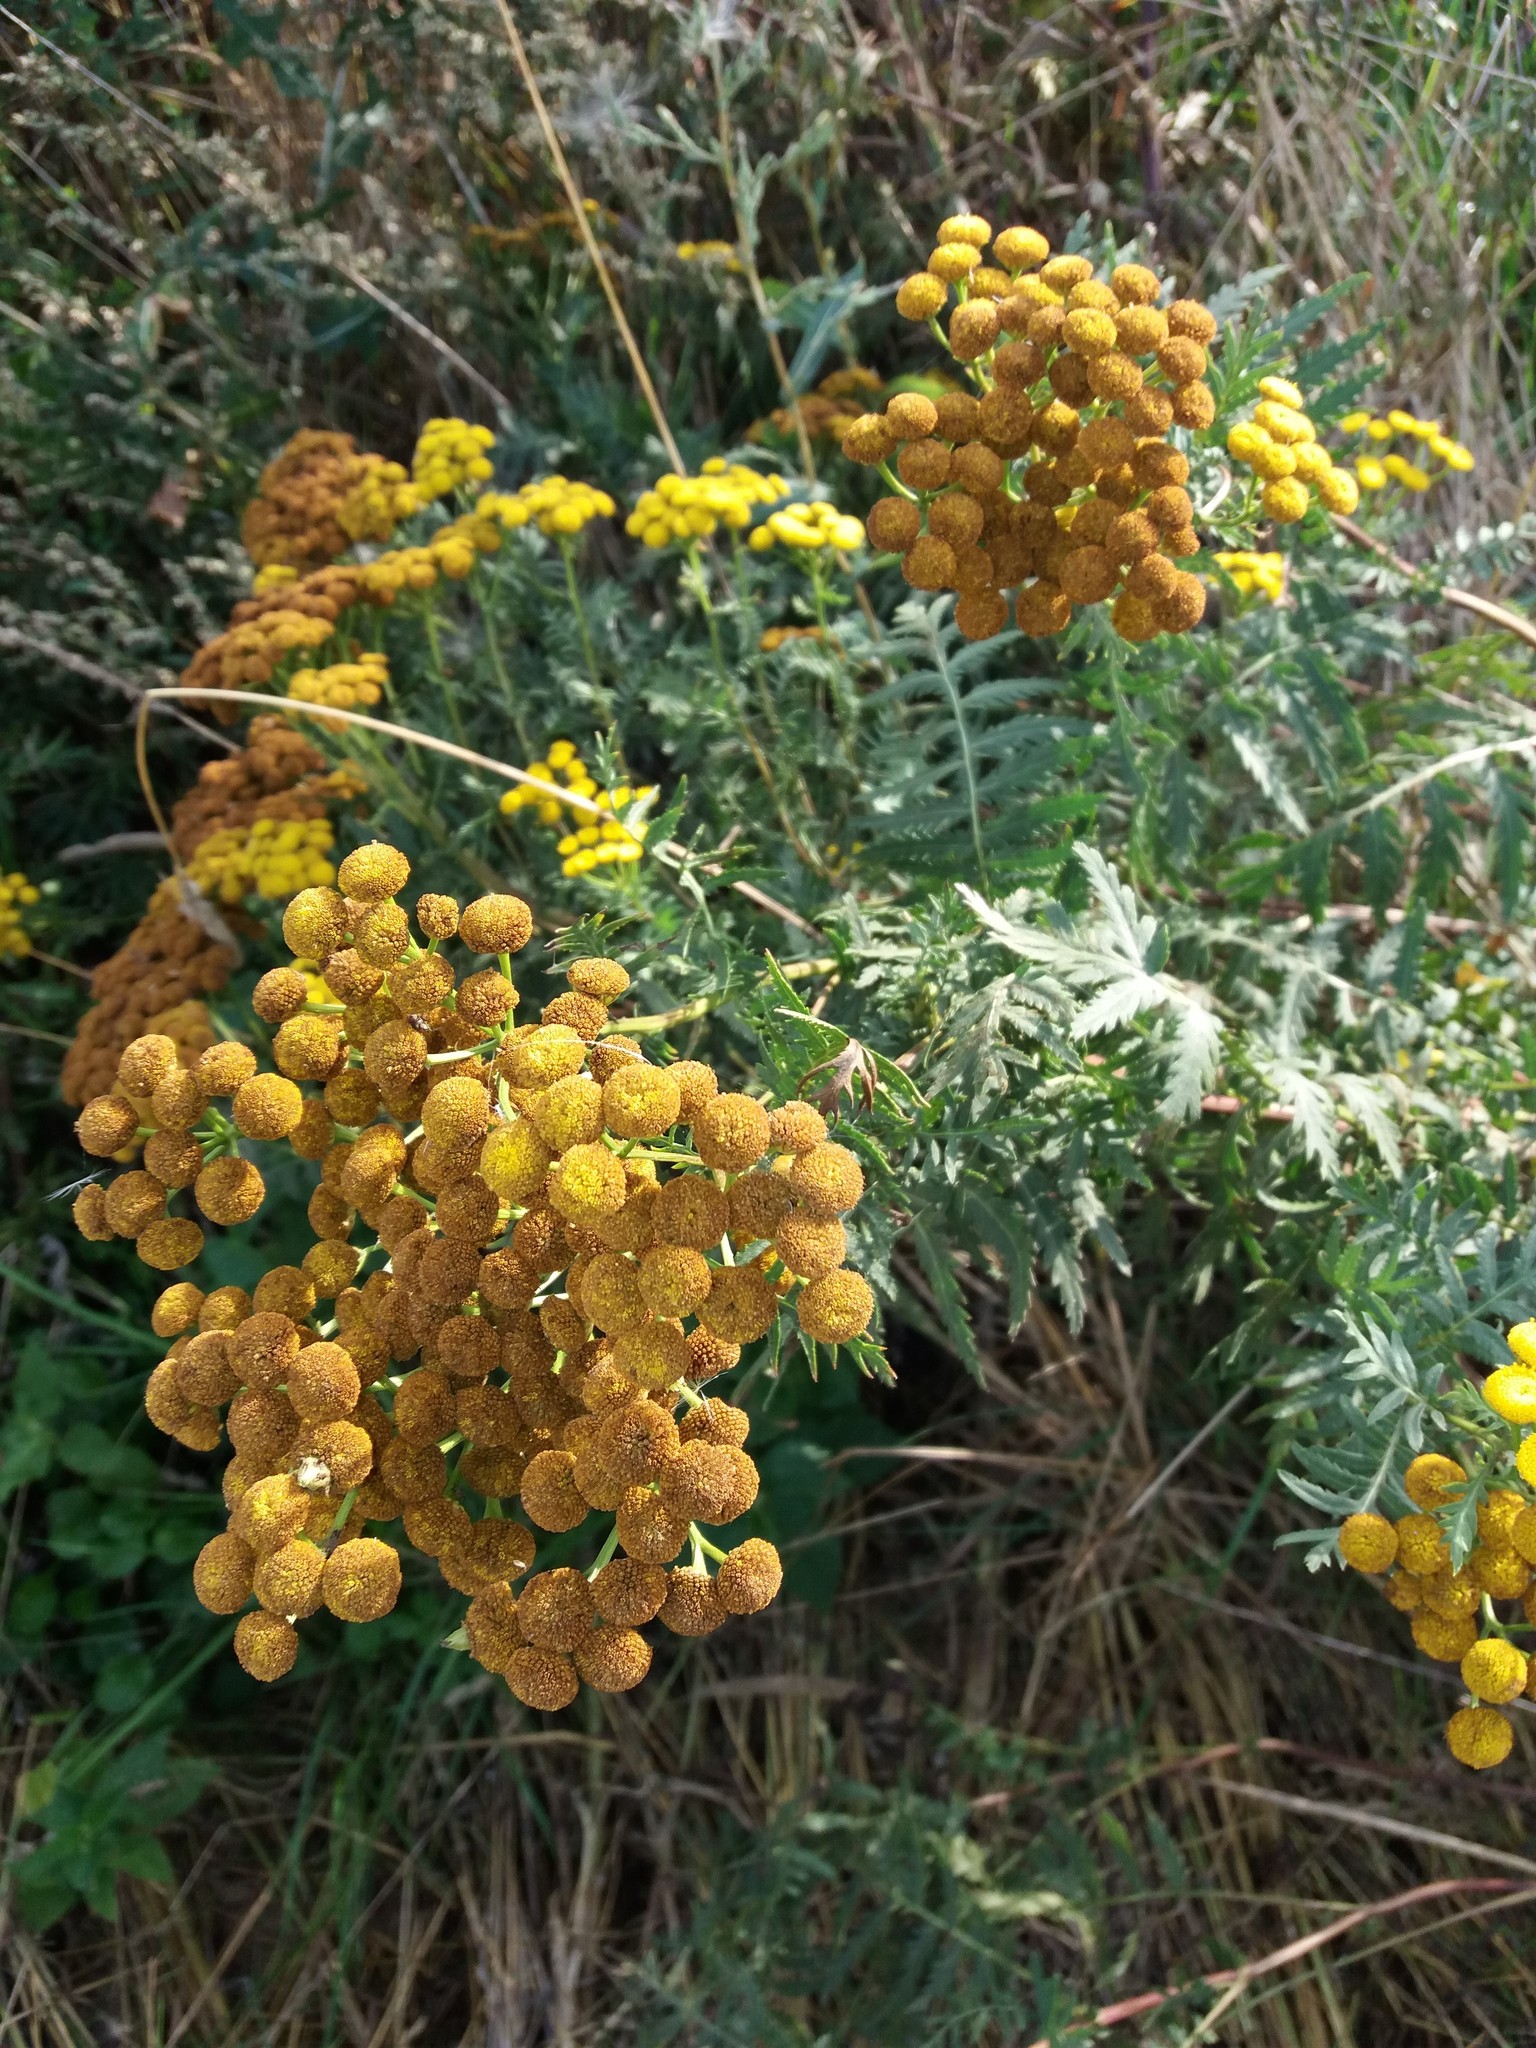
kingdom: Plantae
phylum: Tracheophyta
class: Magnoliopsida
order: Asterales
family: Asteraceae
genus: Tanacetum
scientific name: Tanacetum vulgare
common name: Common tansy
